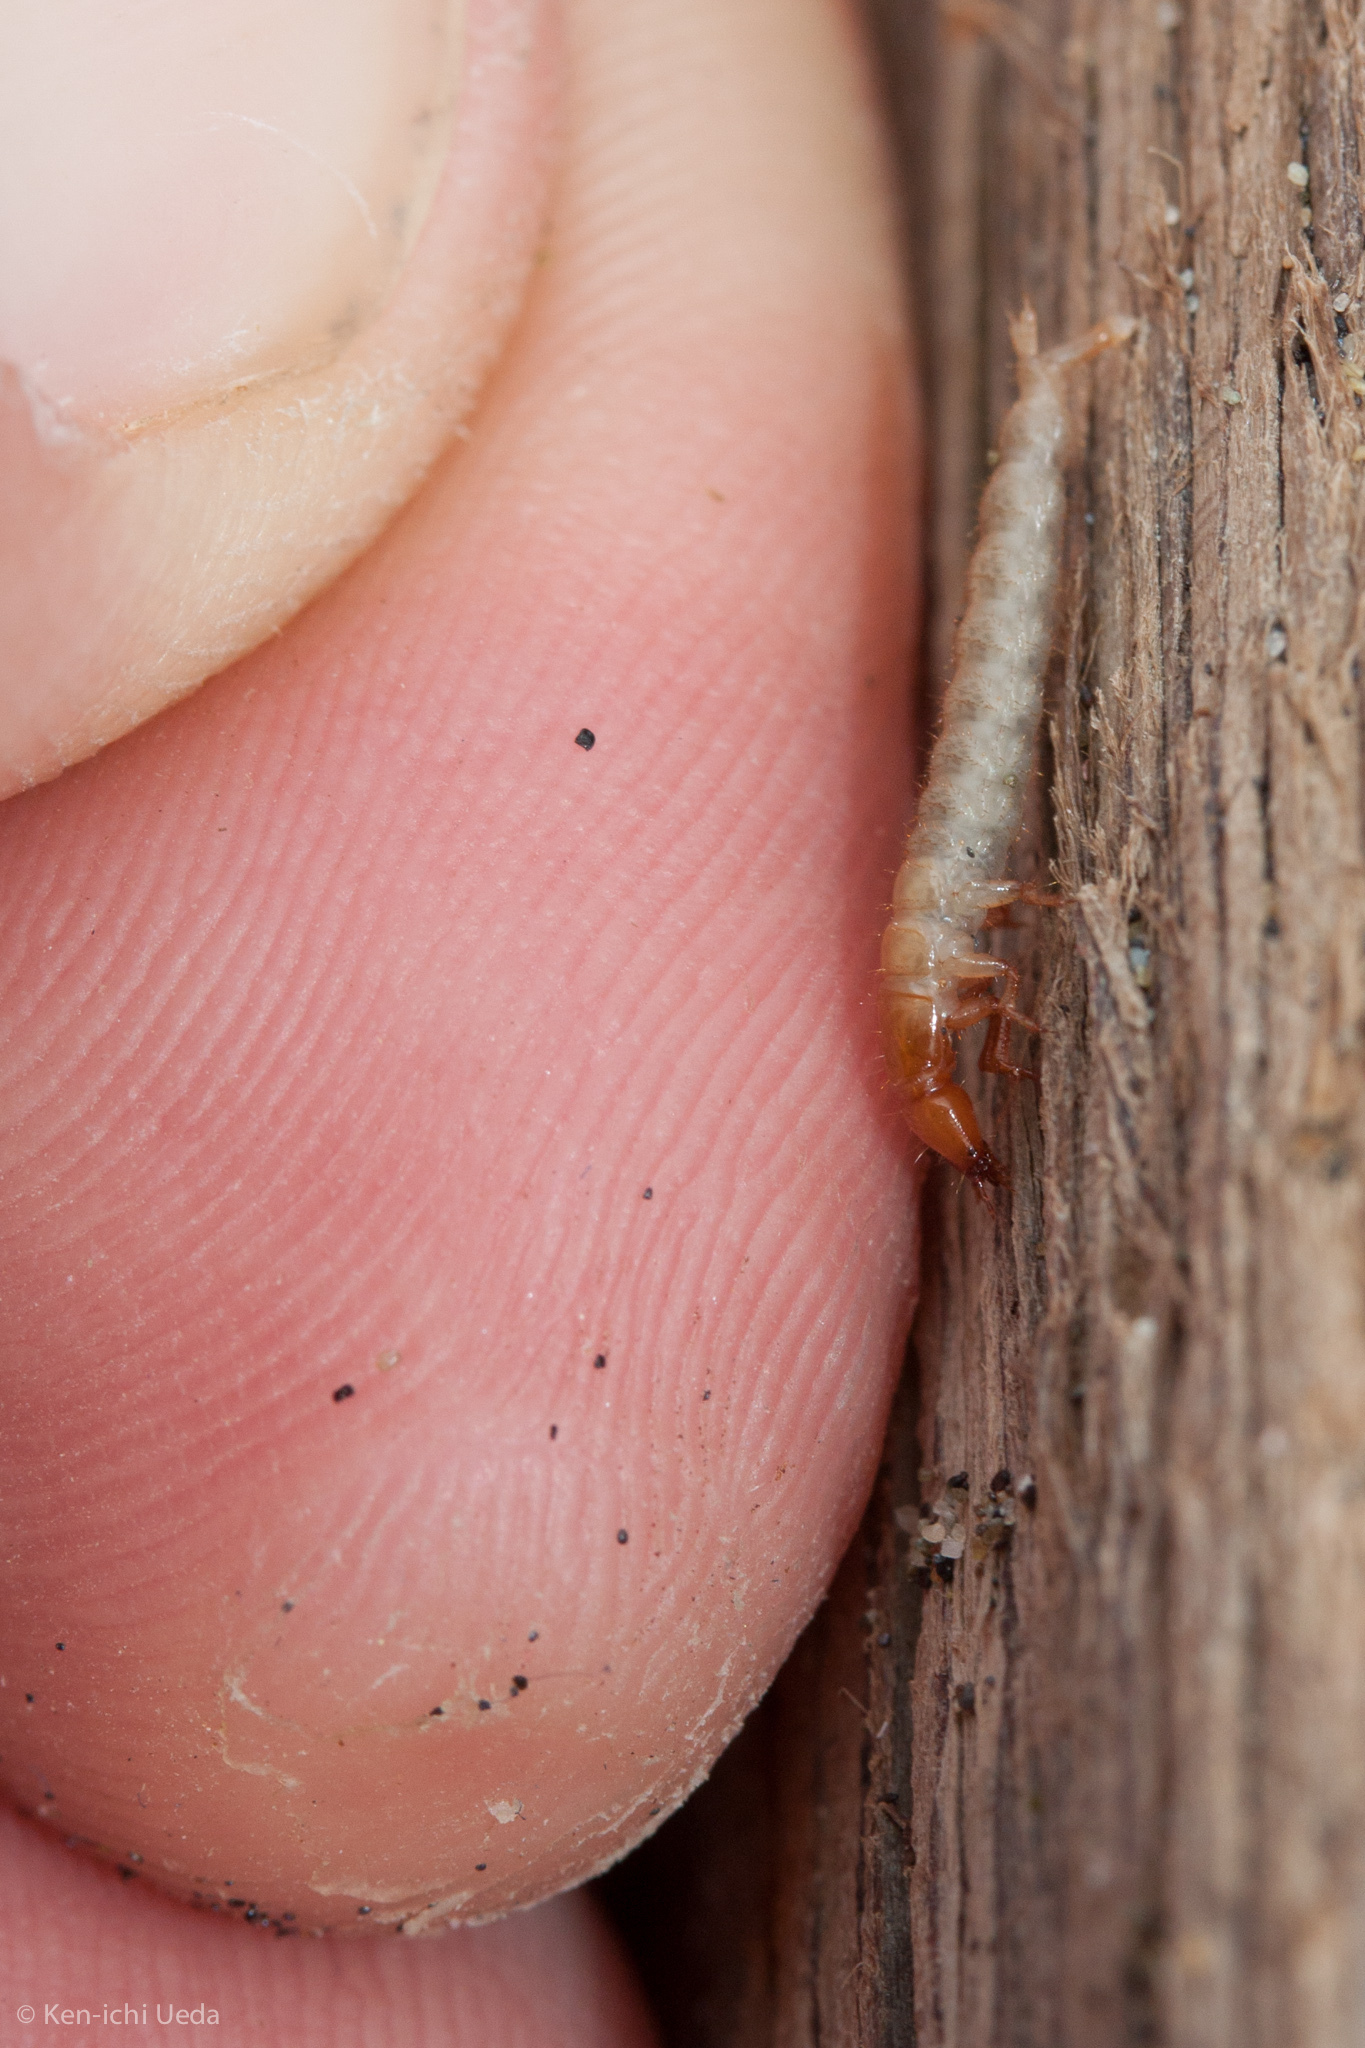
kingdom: Animalia
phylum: Arthropoda
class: Insecta
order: Coleoptera
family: Staphyliniae
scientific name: Staphyliniae
